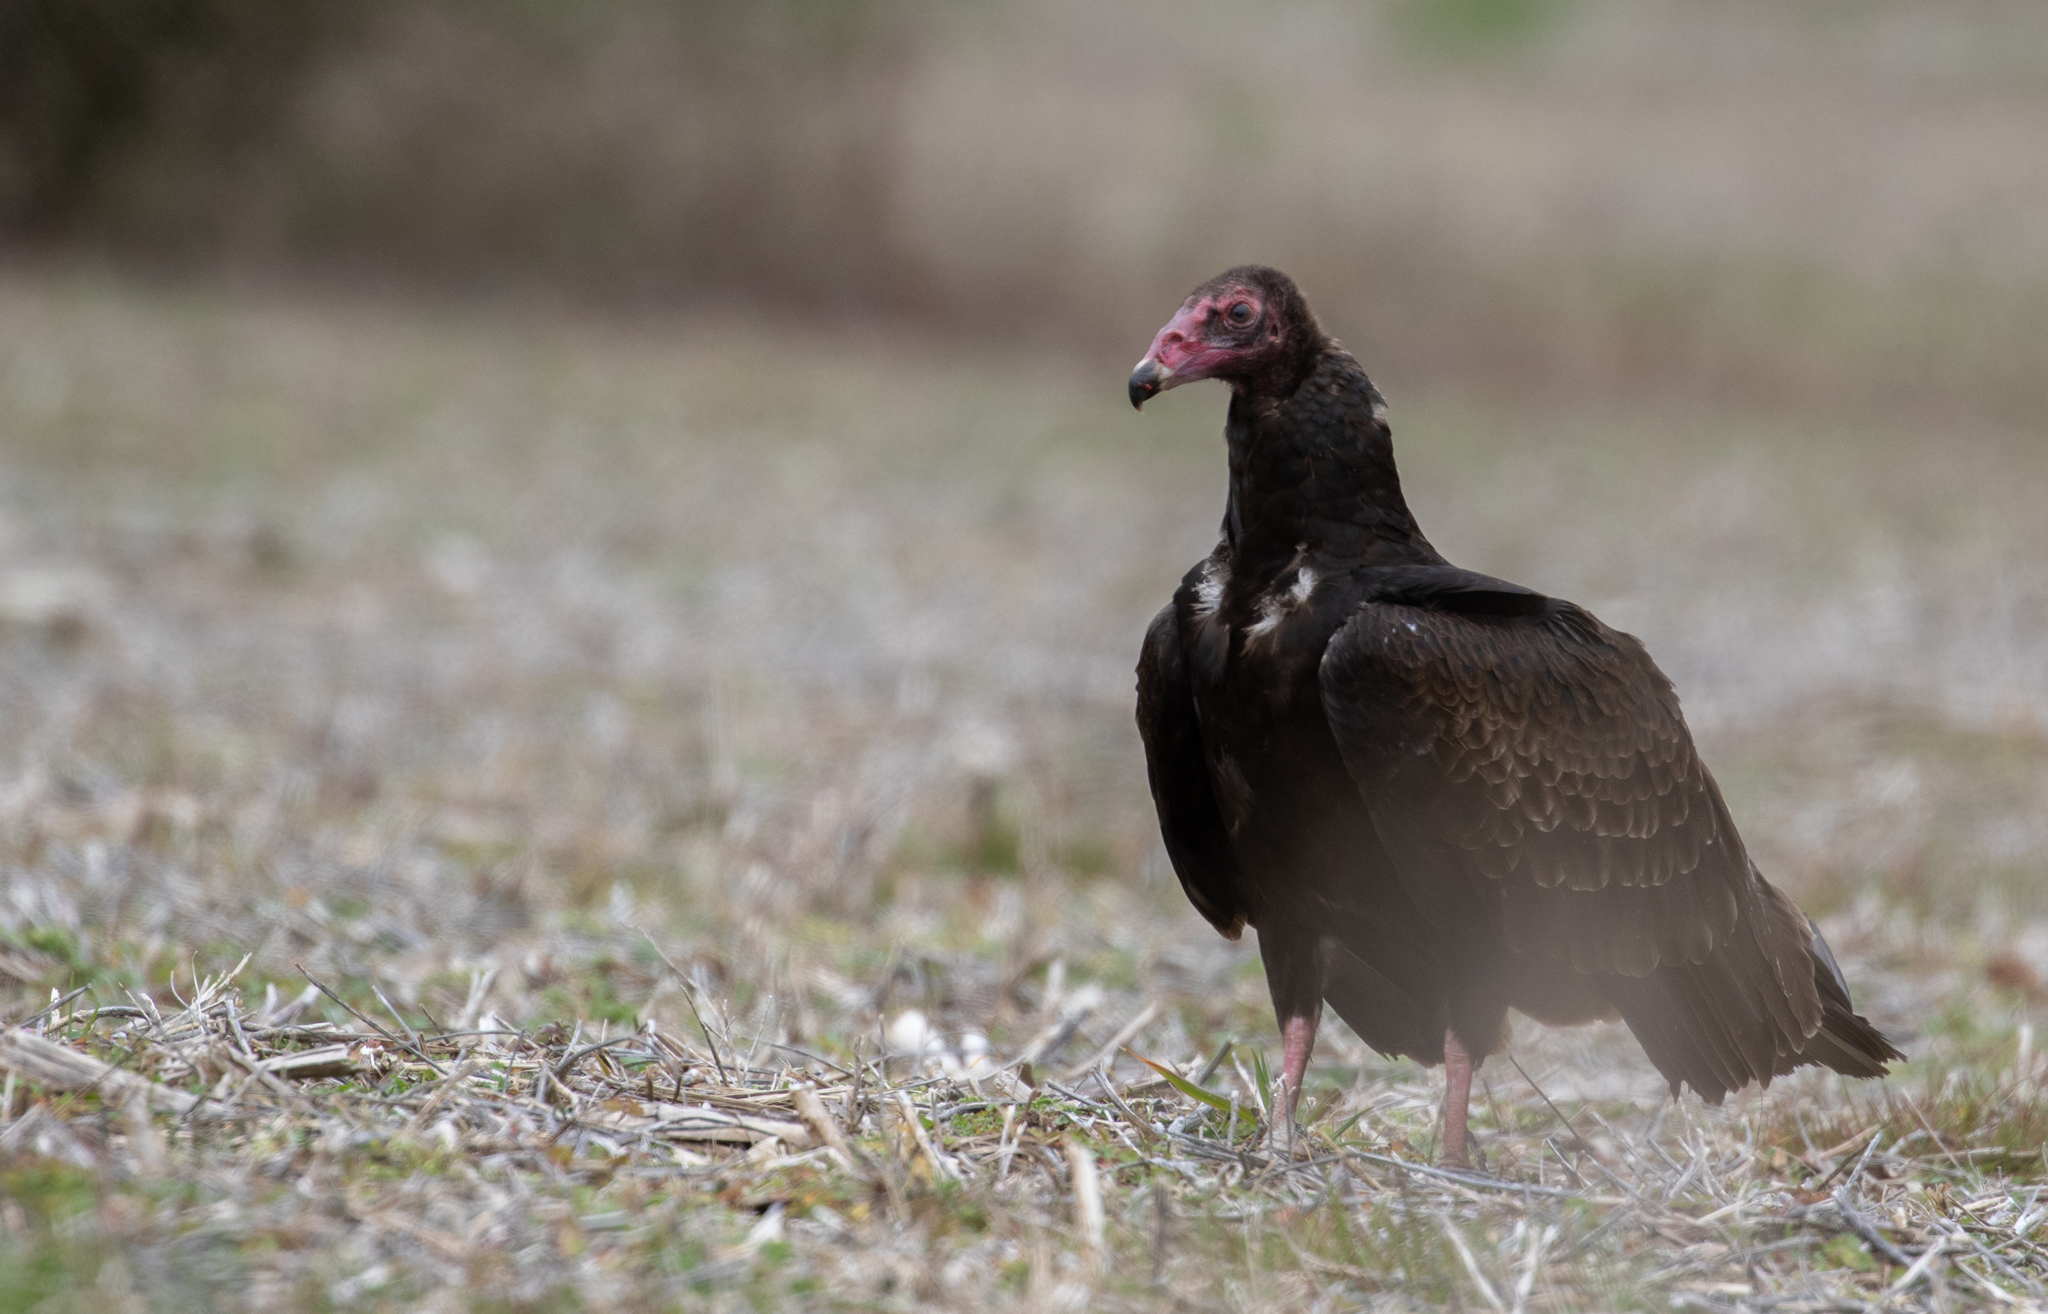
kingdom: Animalia
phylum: Chordata
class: Aves
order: Accipitriformes
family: Cathartidae
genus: Cathartes
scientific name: Cathartes aura
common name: Turkey vulture
